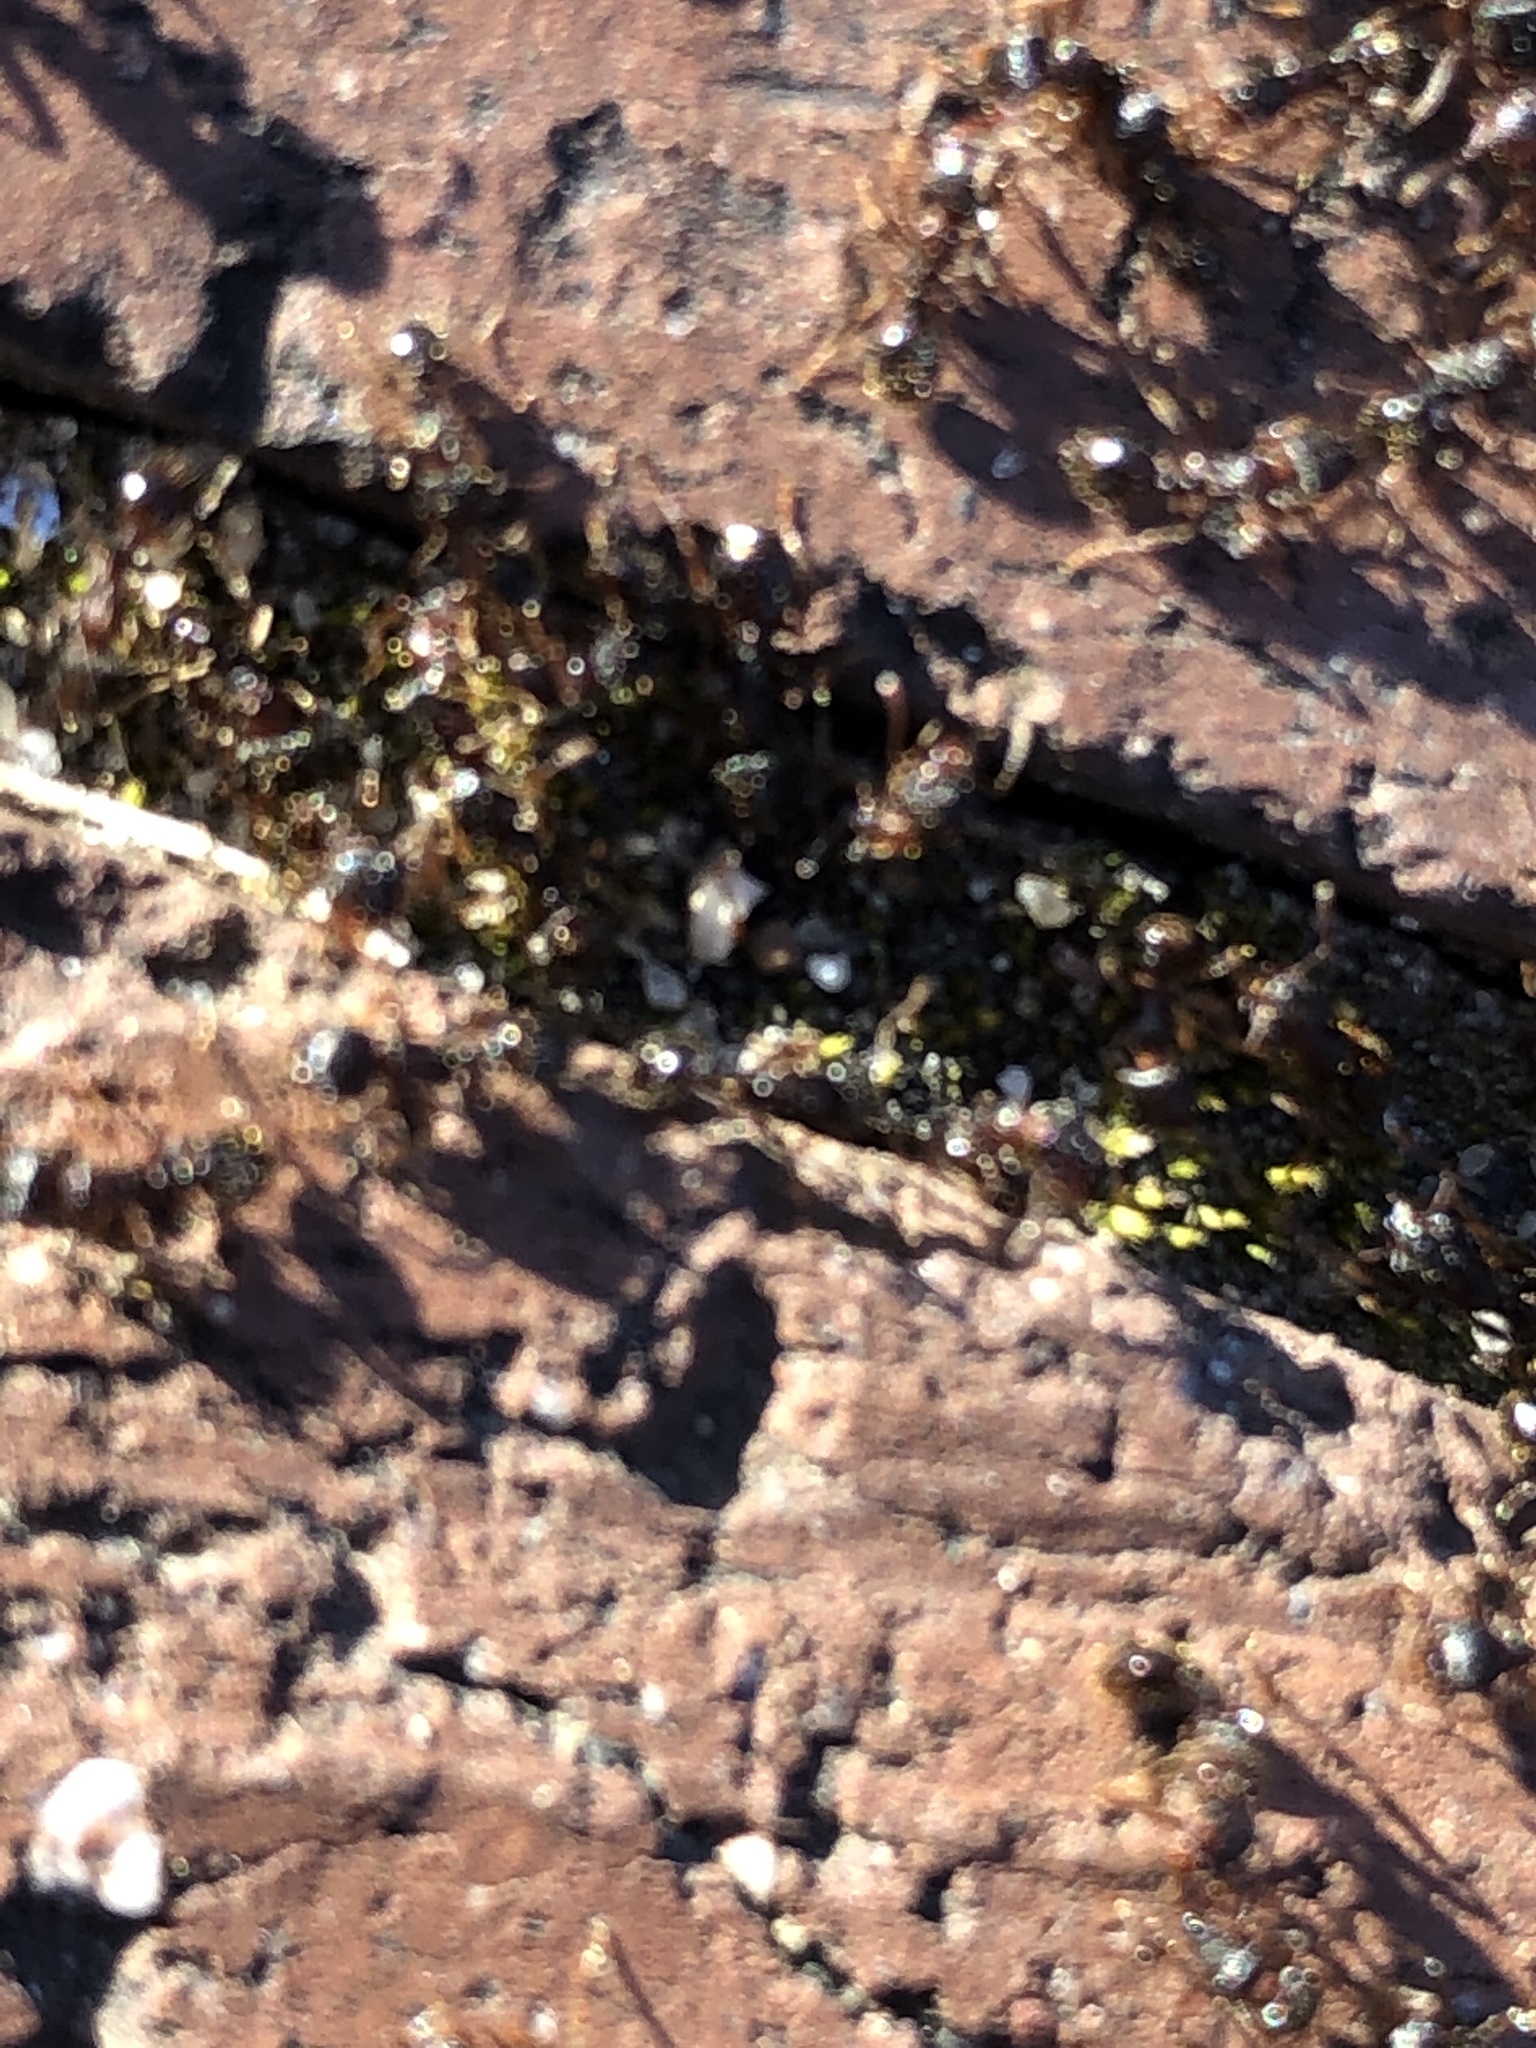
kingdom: Animalia
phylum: Arthropoda
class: Insecta
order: Hymenoptera
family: Formicidae
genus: Tetramorium
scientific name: Tetramorium immigrans
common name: Pavement ant
